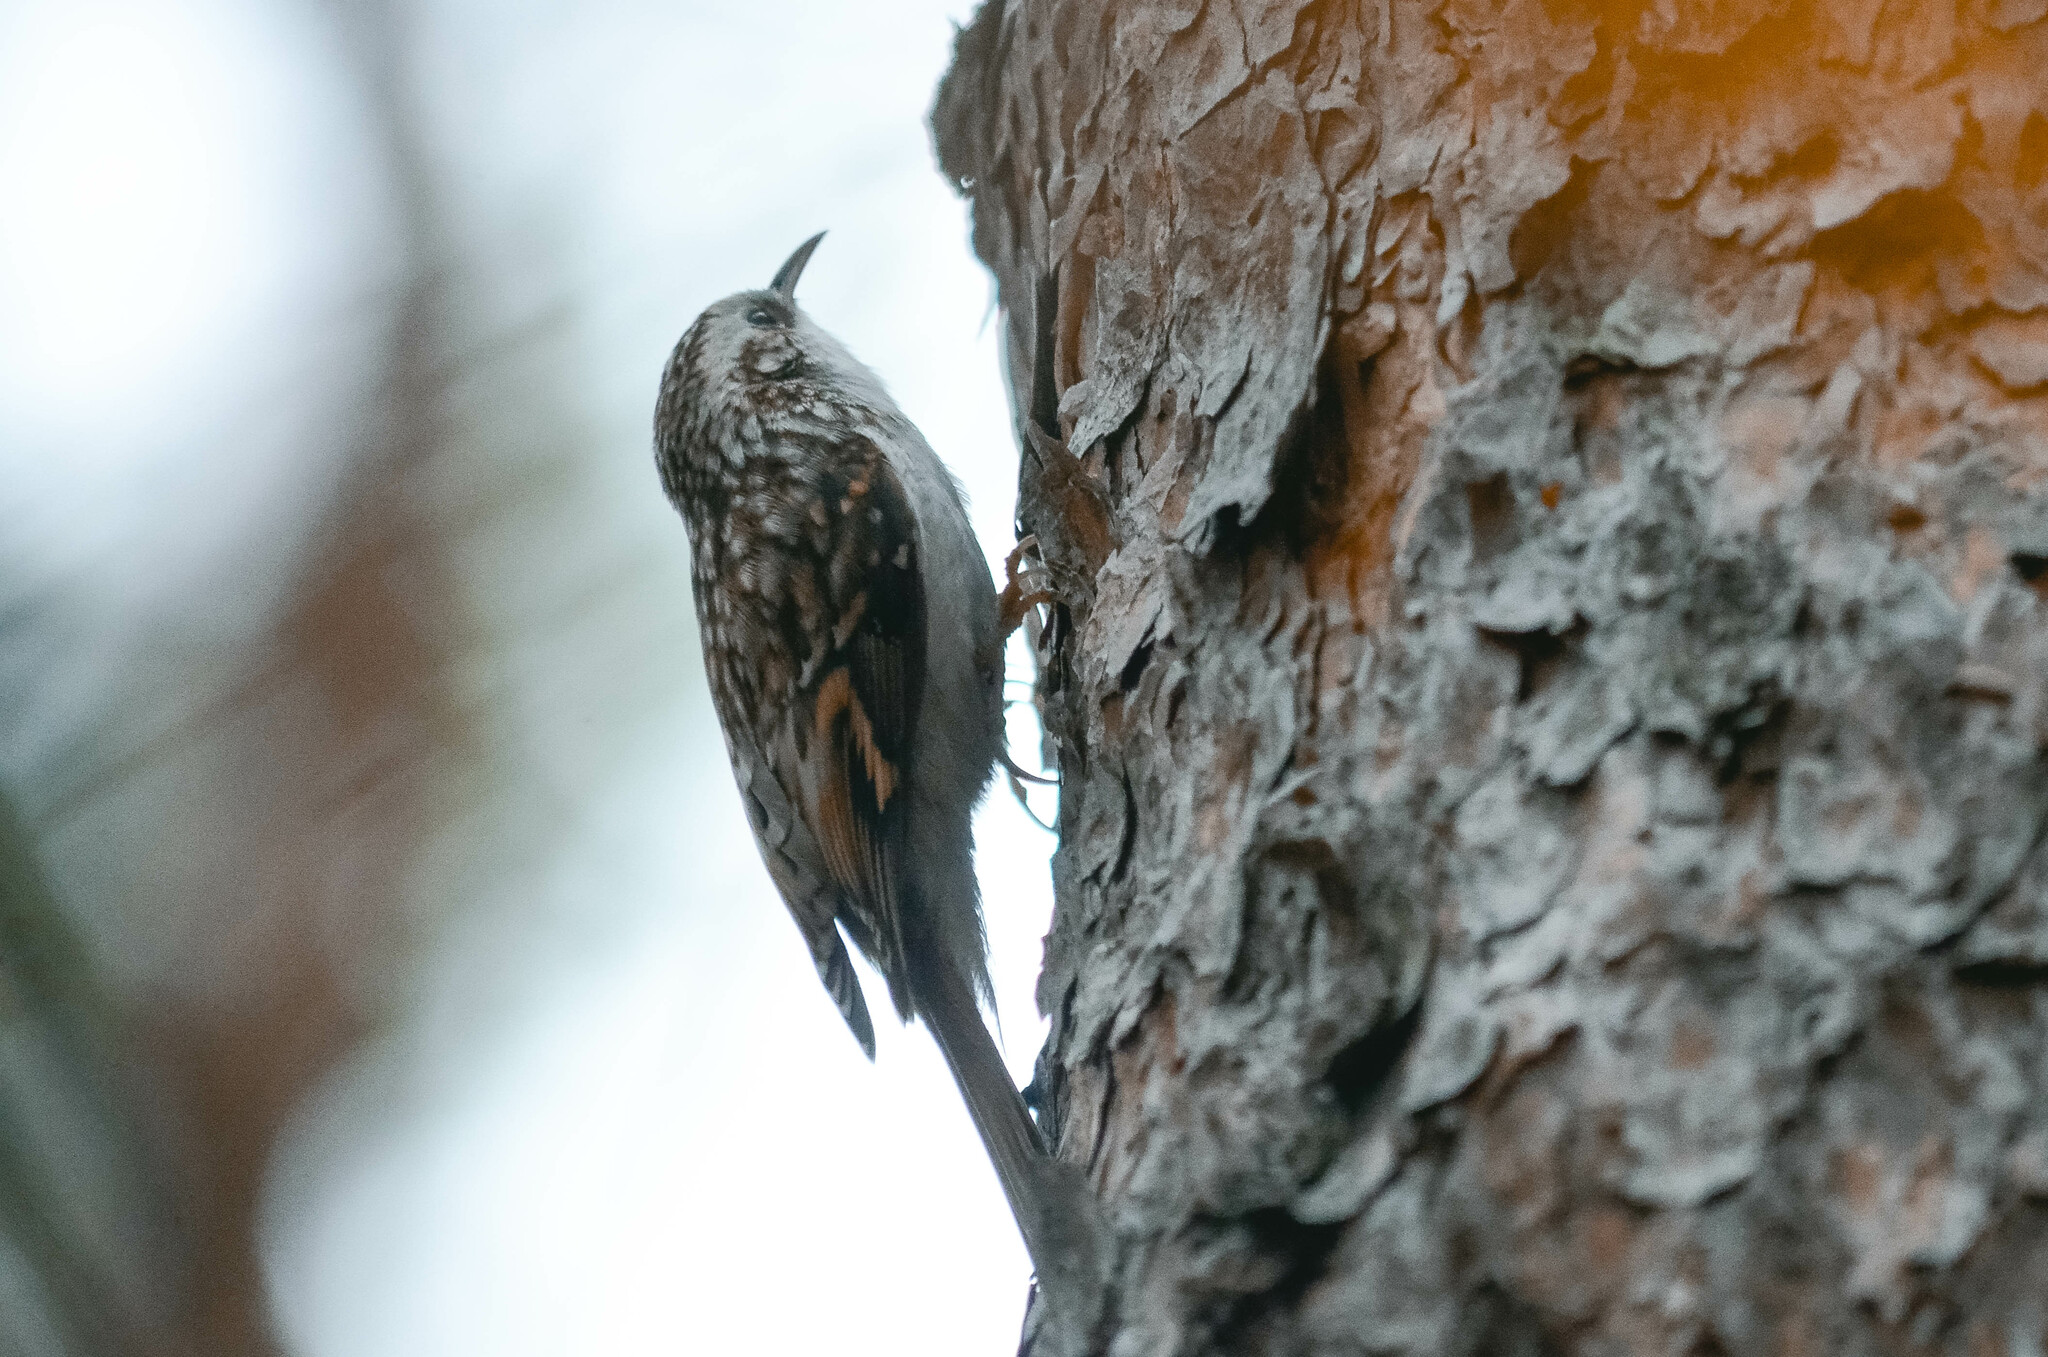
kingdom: Animalia
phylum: Chordata
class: Aves
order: Passeriformes
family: Certhiidae
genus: Certhia
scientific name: Certhia familiaris
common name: Eurasian treecreeper
